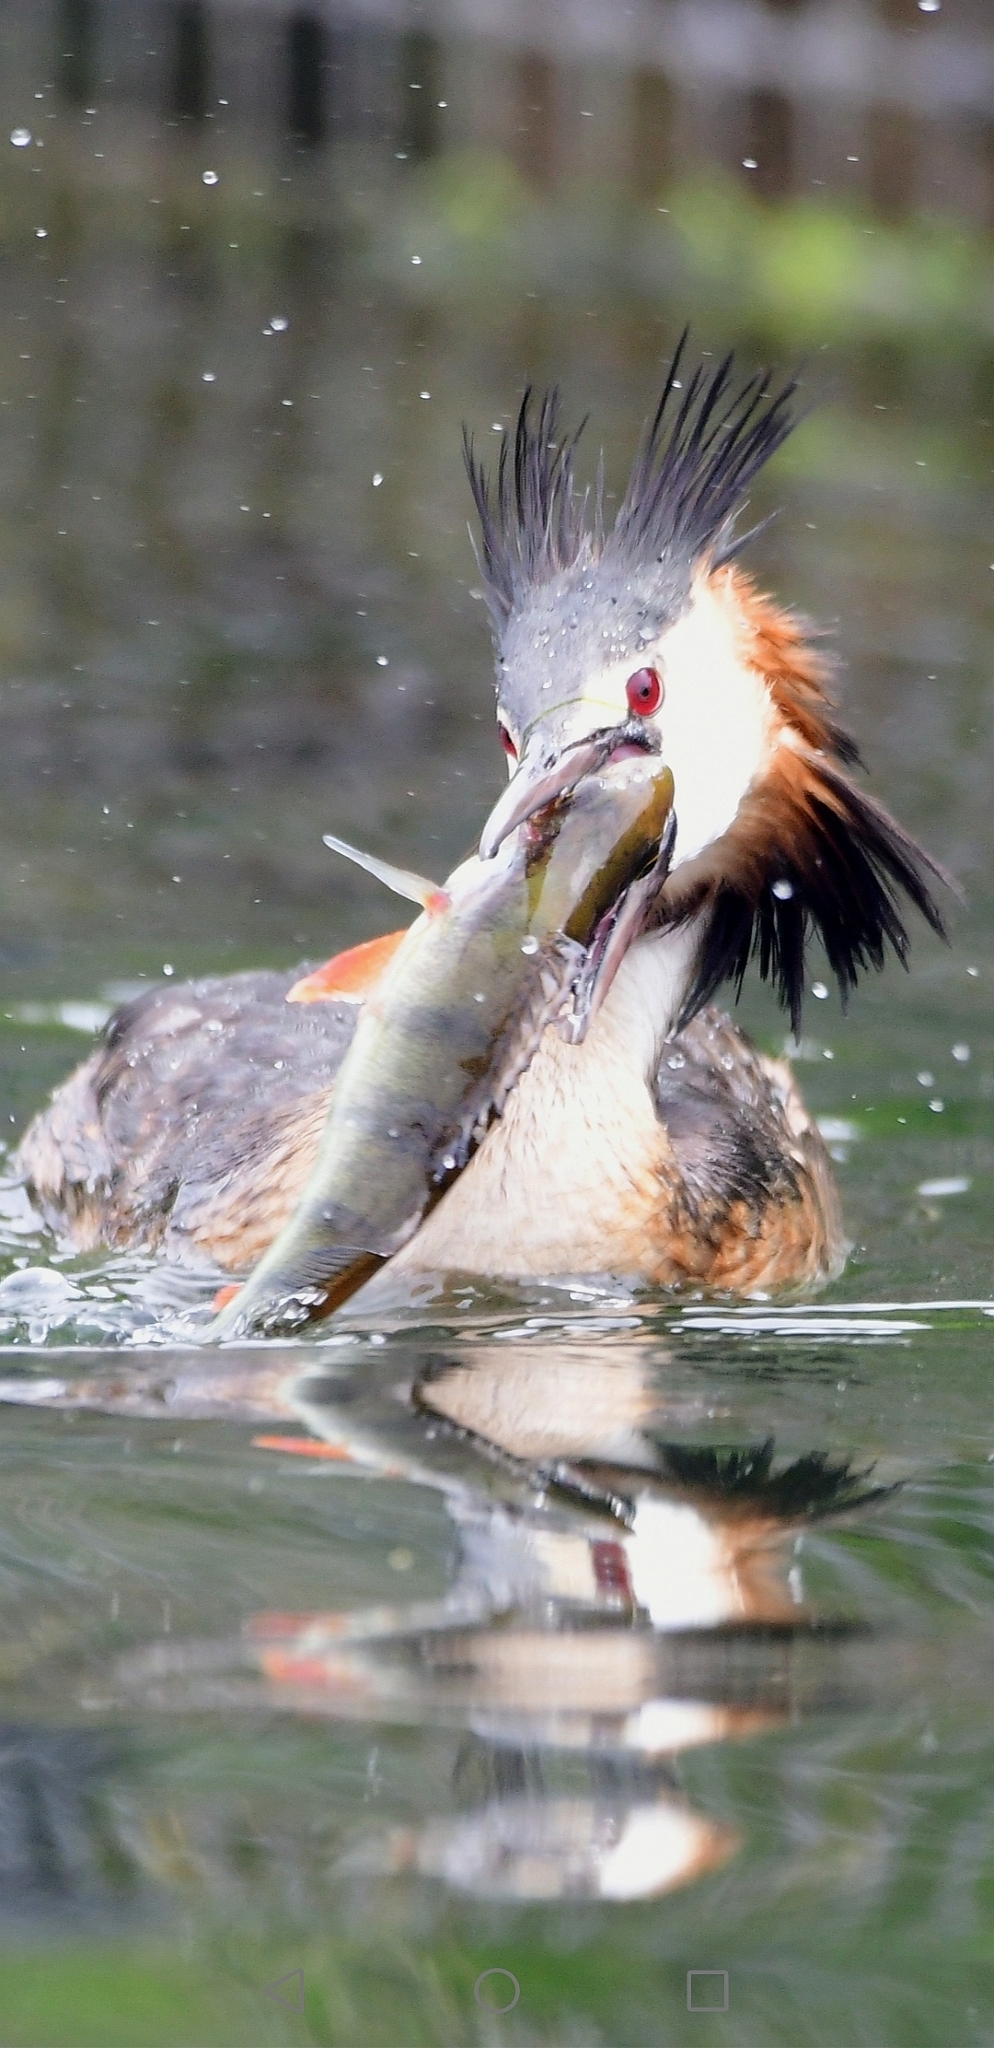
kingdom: Animalia
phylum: Chordata
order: Perciformes
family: Percidae
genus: Perca
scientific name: Perca fluviatilis
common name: Perch
